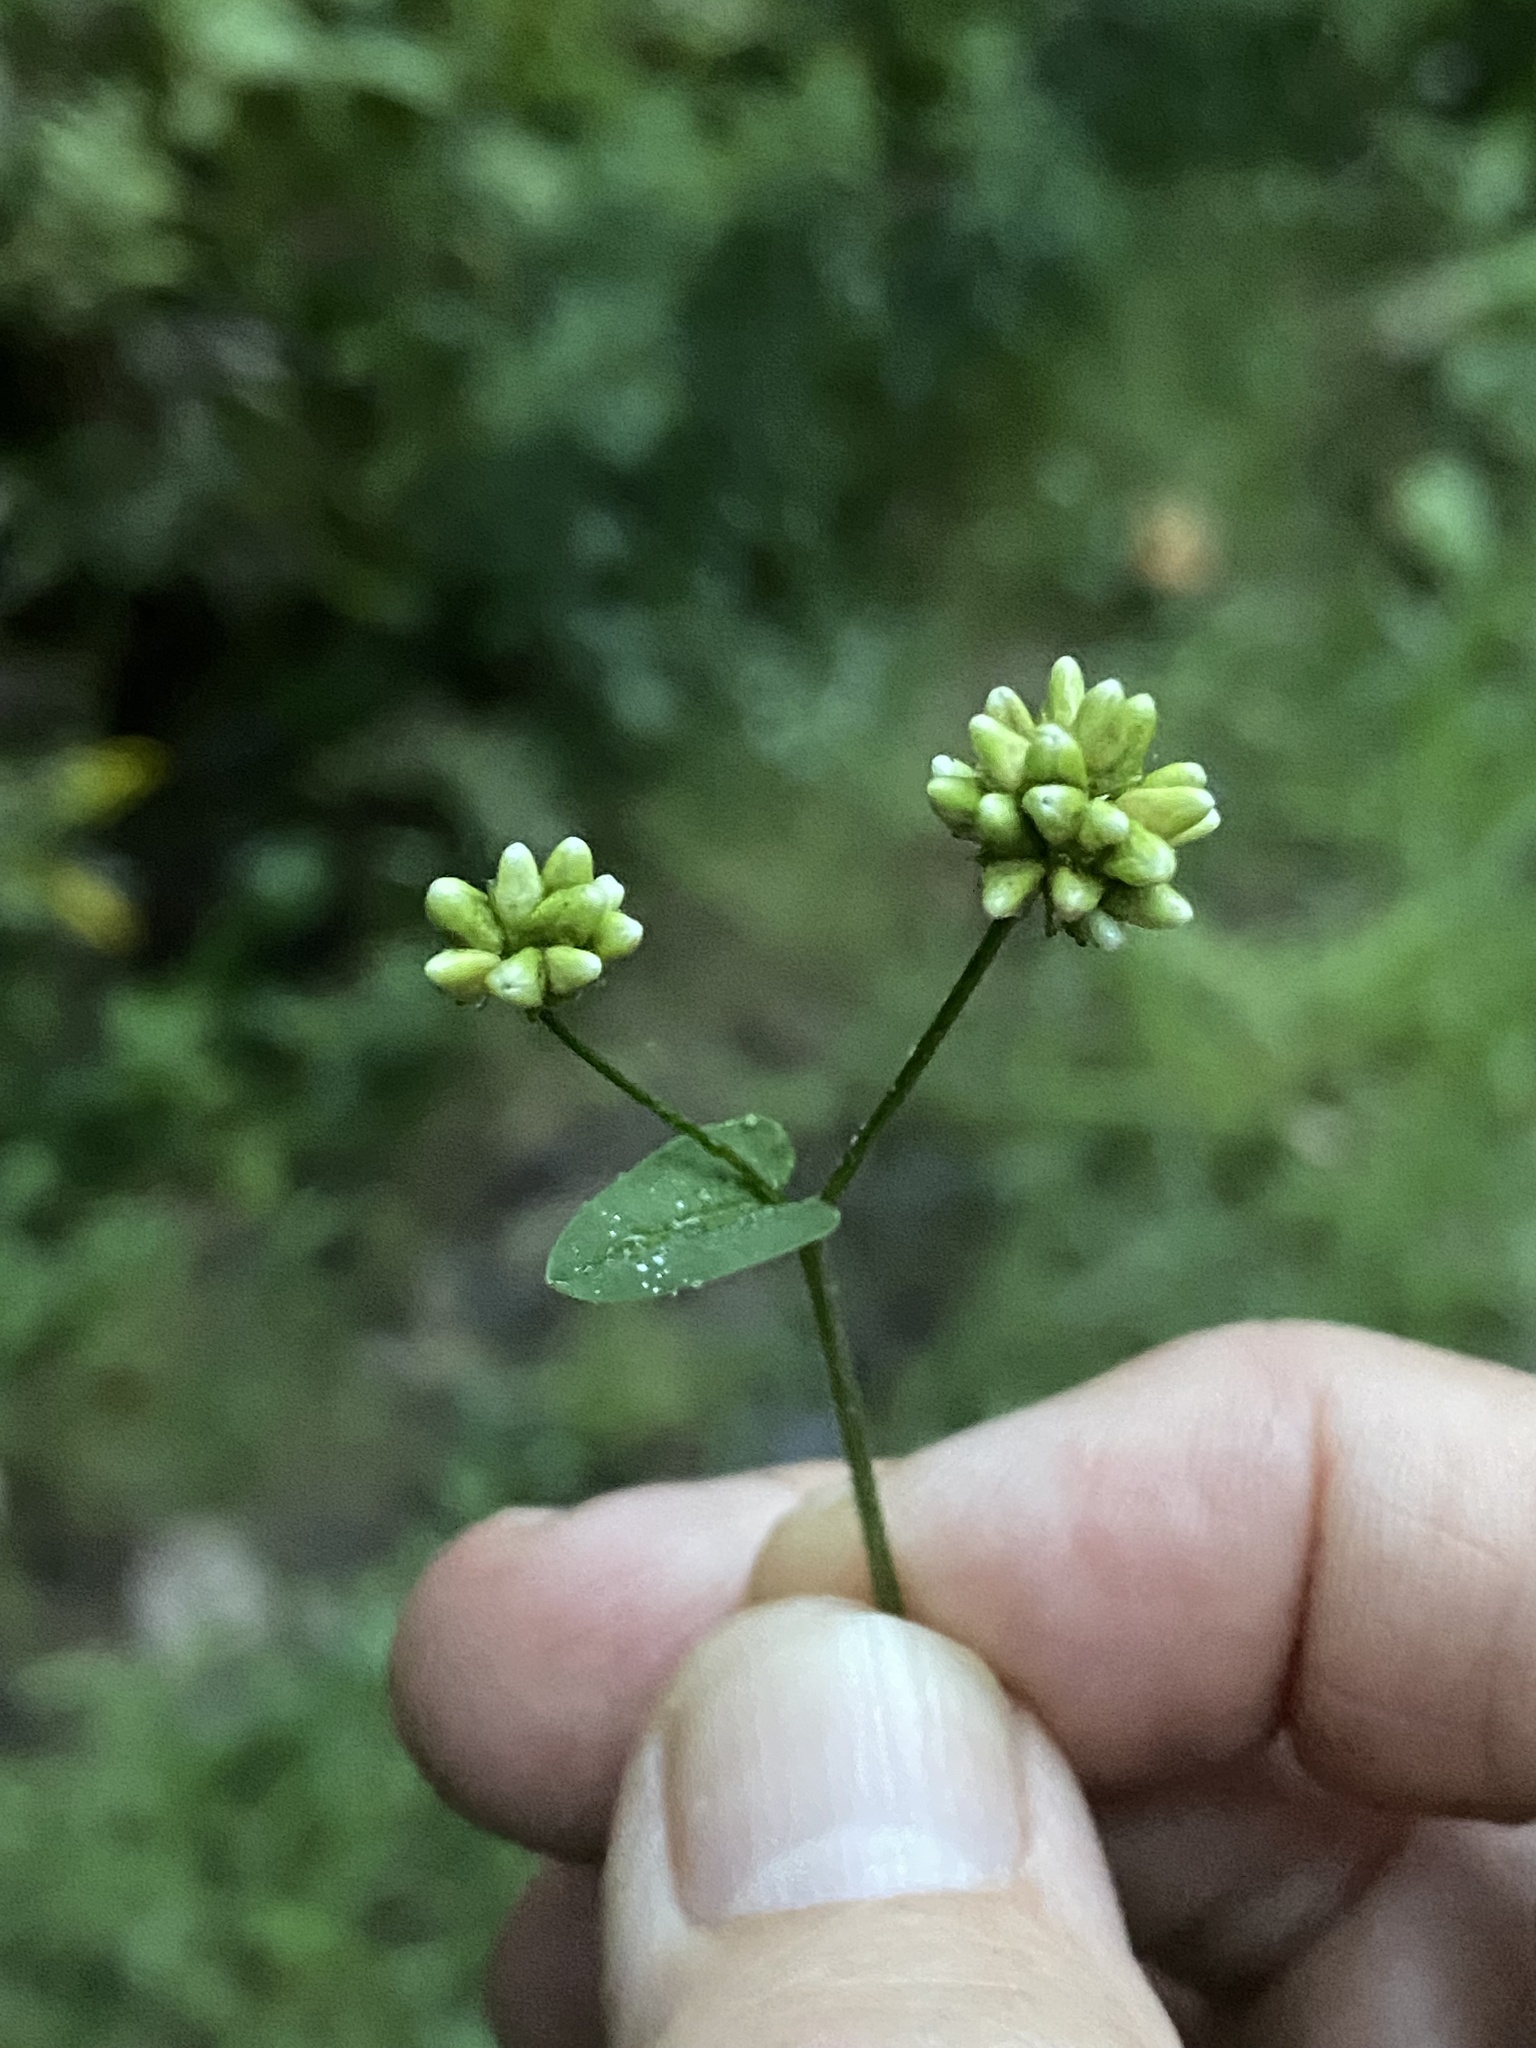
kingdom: Plantae
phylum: Tracheophyta
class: Magnoliopsida
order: Caryophyllales
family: Polygonaceae
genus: Persicaria
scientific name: Persicaria sagittata
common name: American tearthumb
